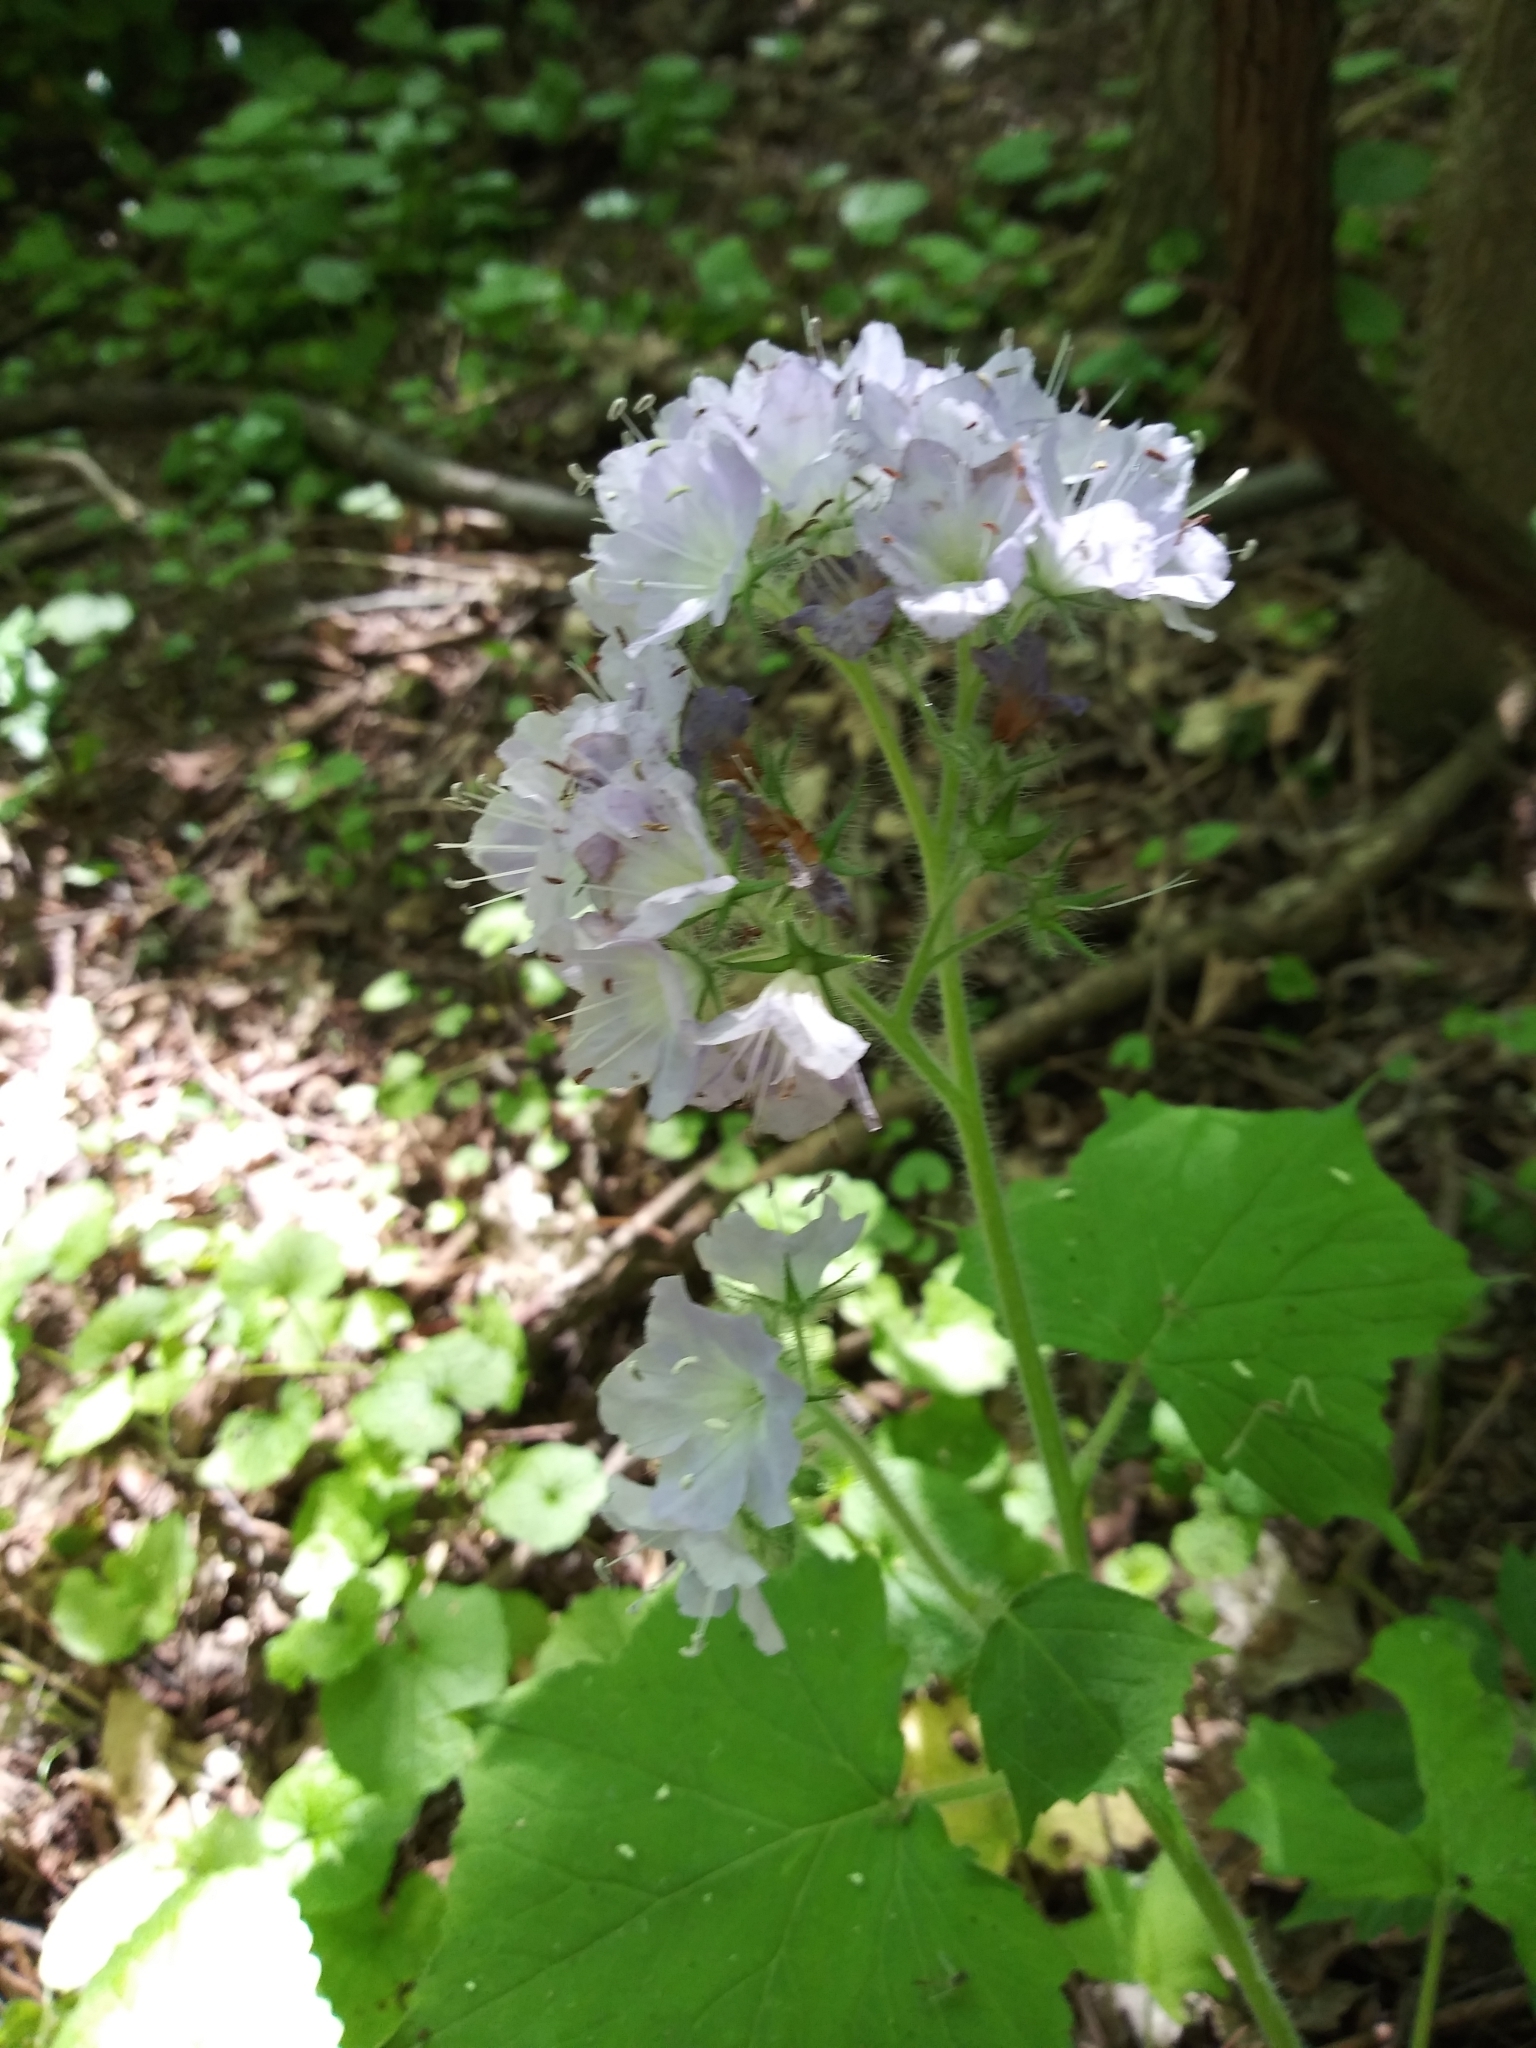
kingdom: Plantae
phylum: Tracheophyta
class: Magnoliopsida
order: Boraginales
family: Hydrophyllaceae
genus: Hydrophyllum
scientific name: Hydrophyllum appendiculatum
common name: Appendaged waterleaf
